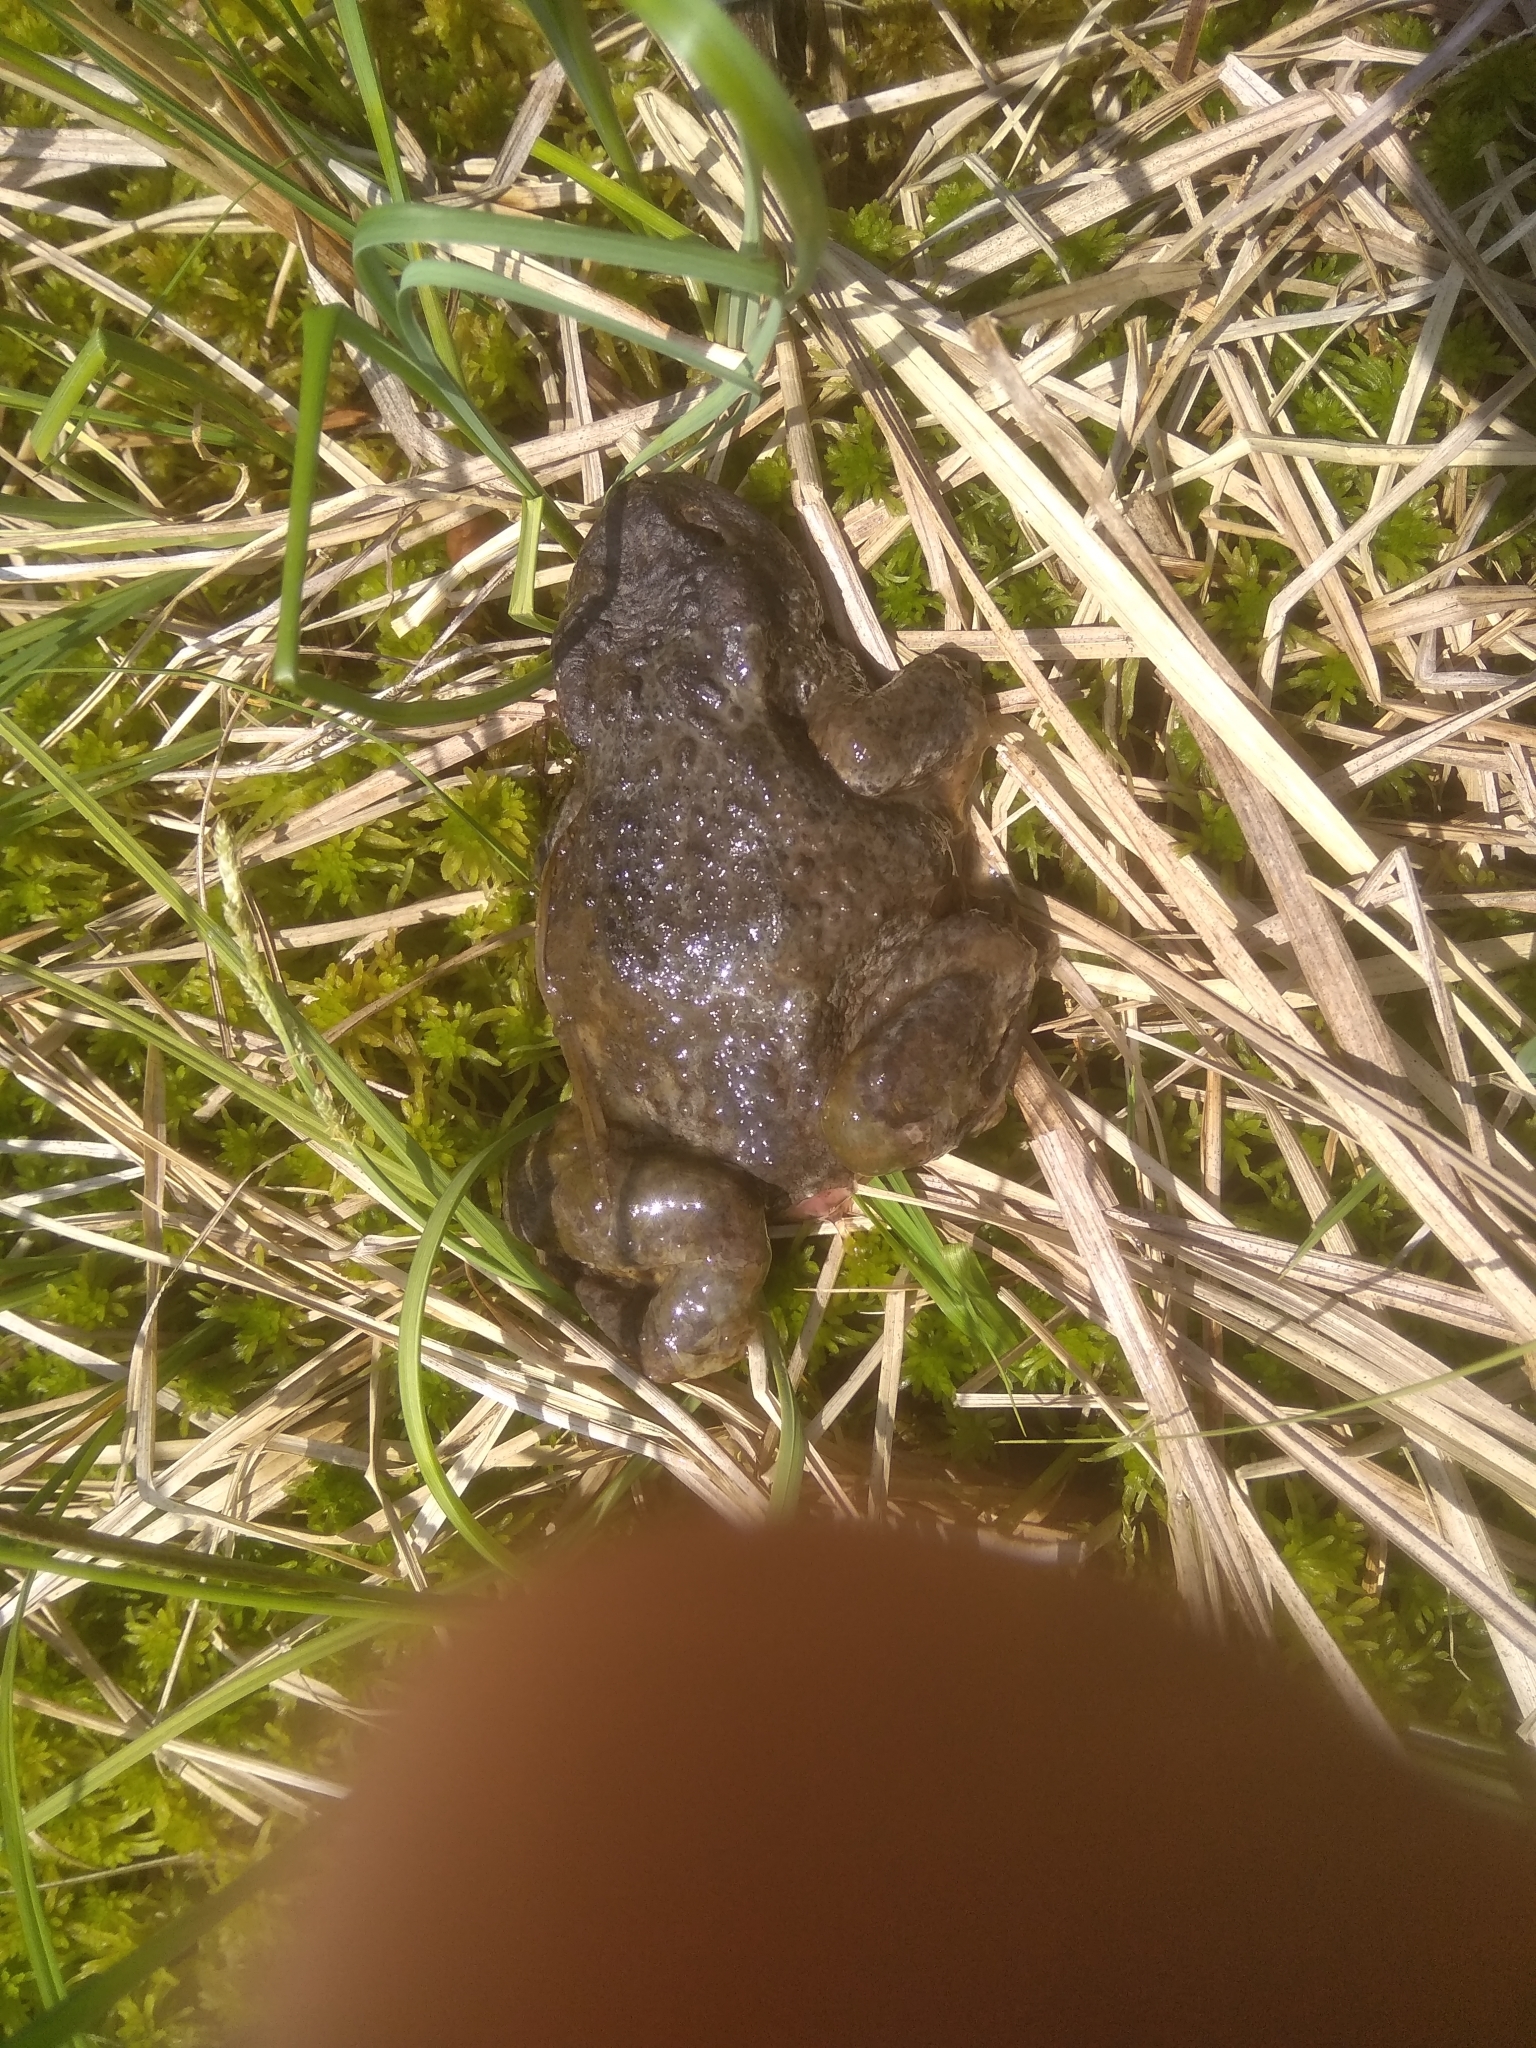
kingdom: Animalia
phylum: Chordata
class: Amphibia
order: Anura
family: Bufonidae
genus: Bufo
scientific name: Bufo bufo
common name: Common toad
